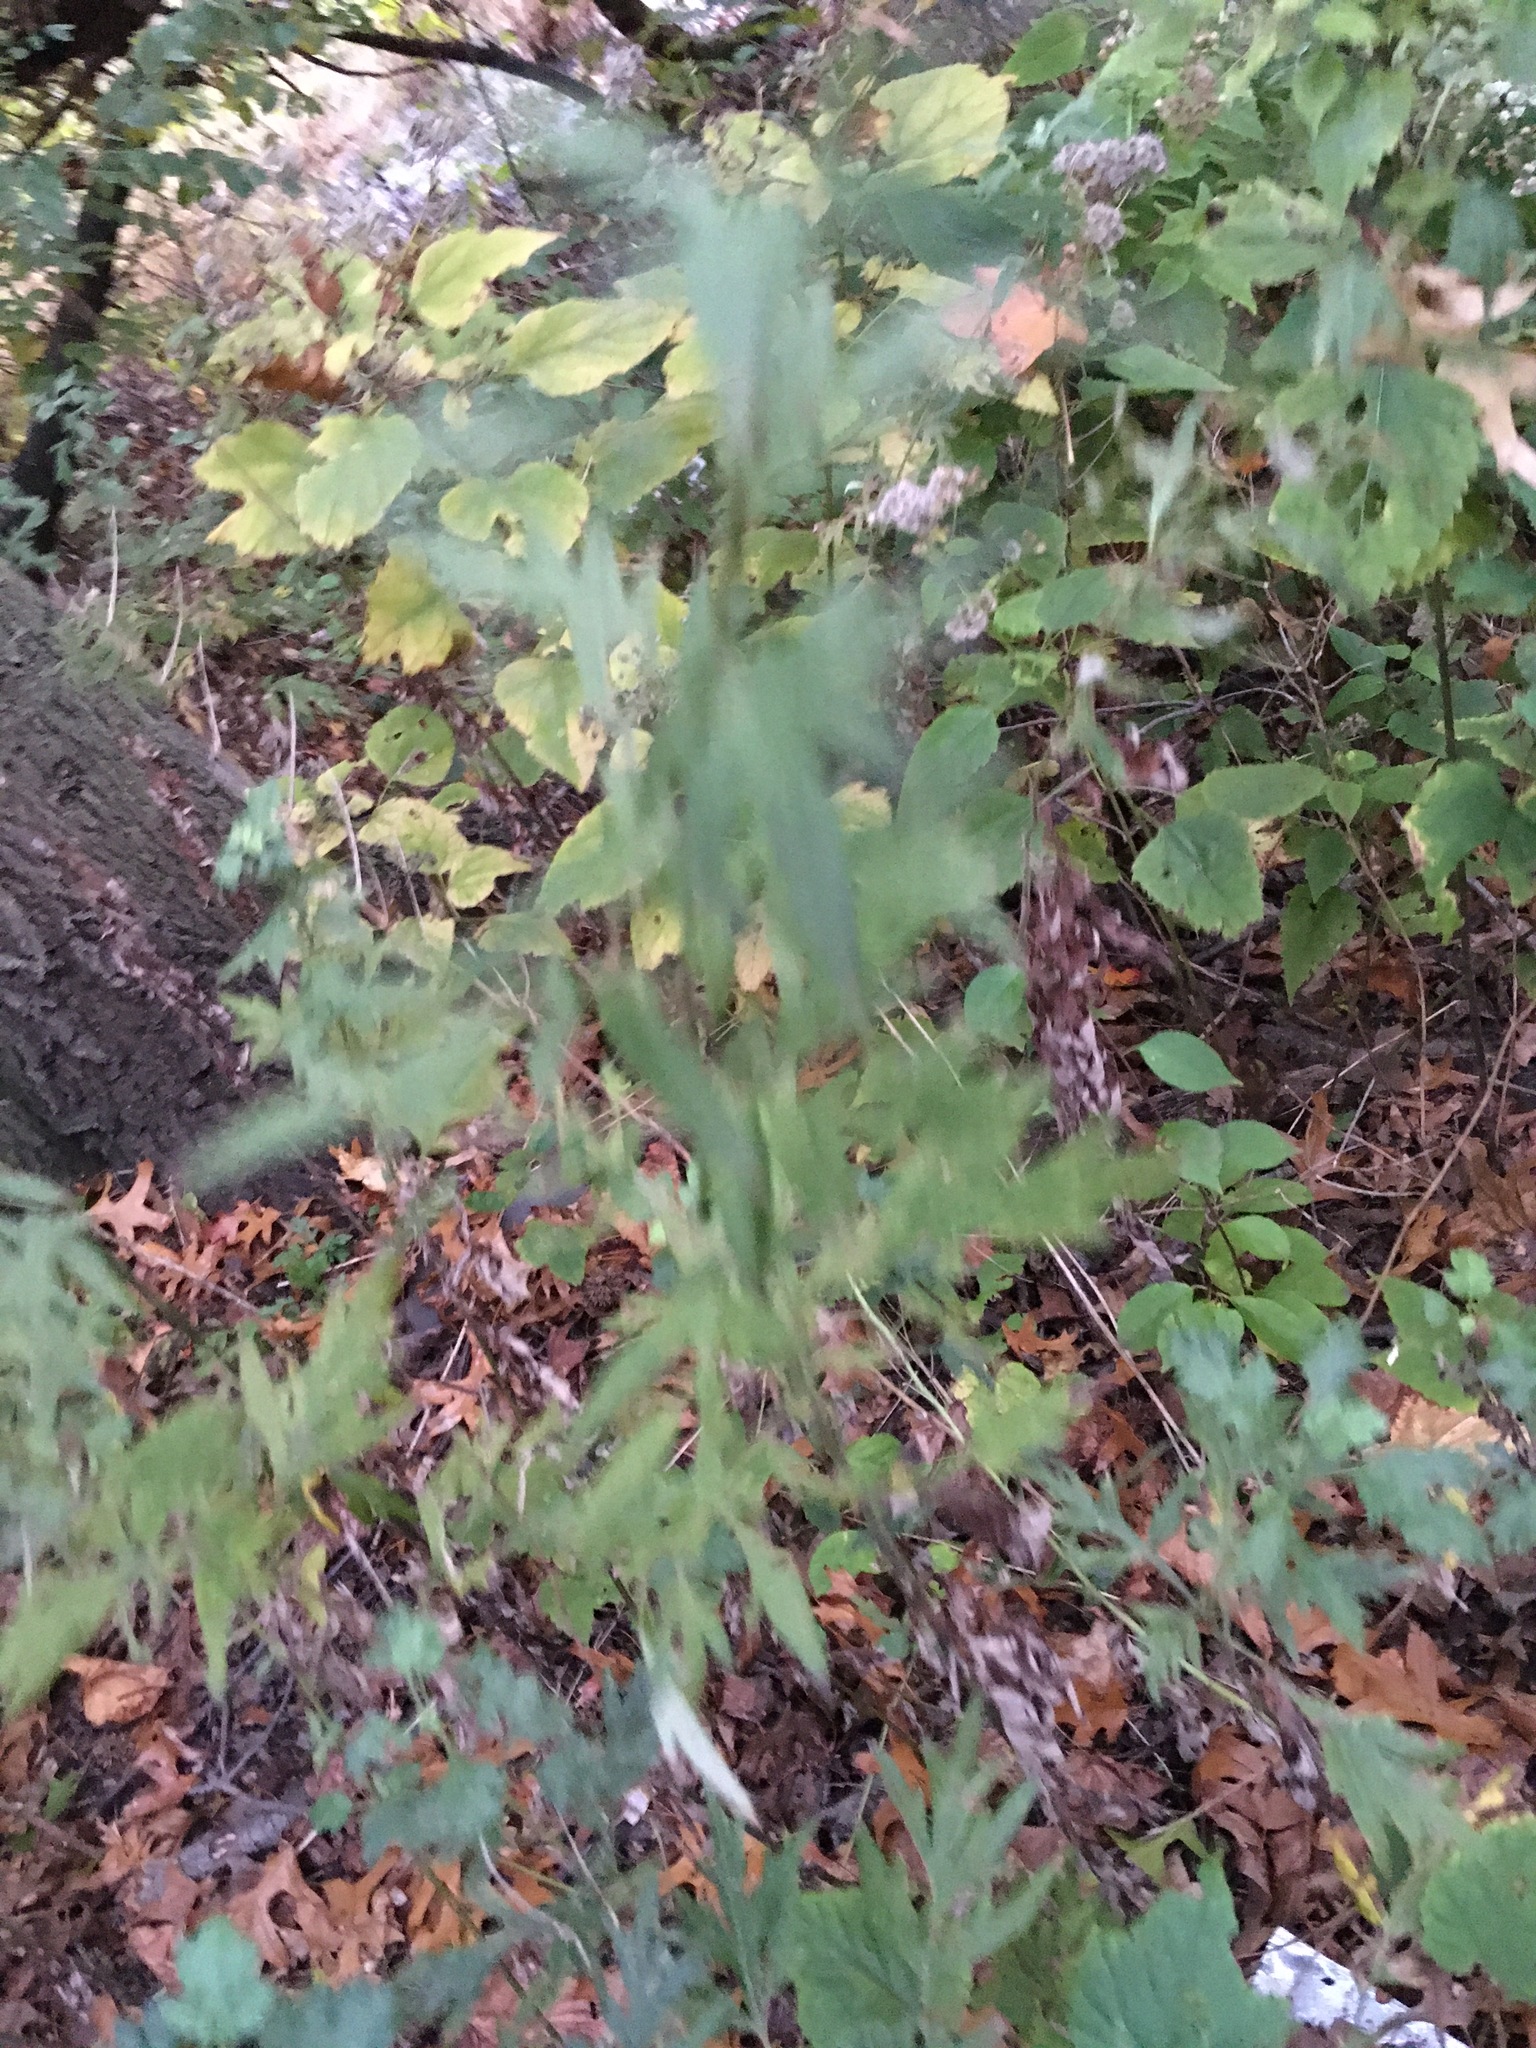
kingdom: Plantae
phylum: Tracheophyta
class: Magnoliopsida
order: Asterales
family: Asteraceae
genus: Artemisia
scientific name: Artemisia vulgaris
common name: Mugwort
